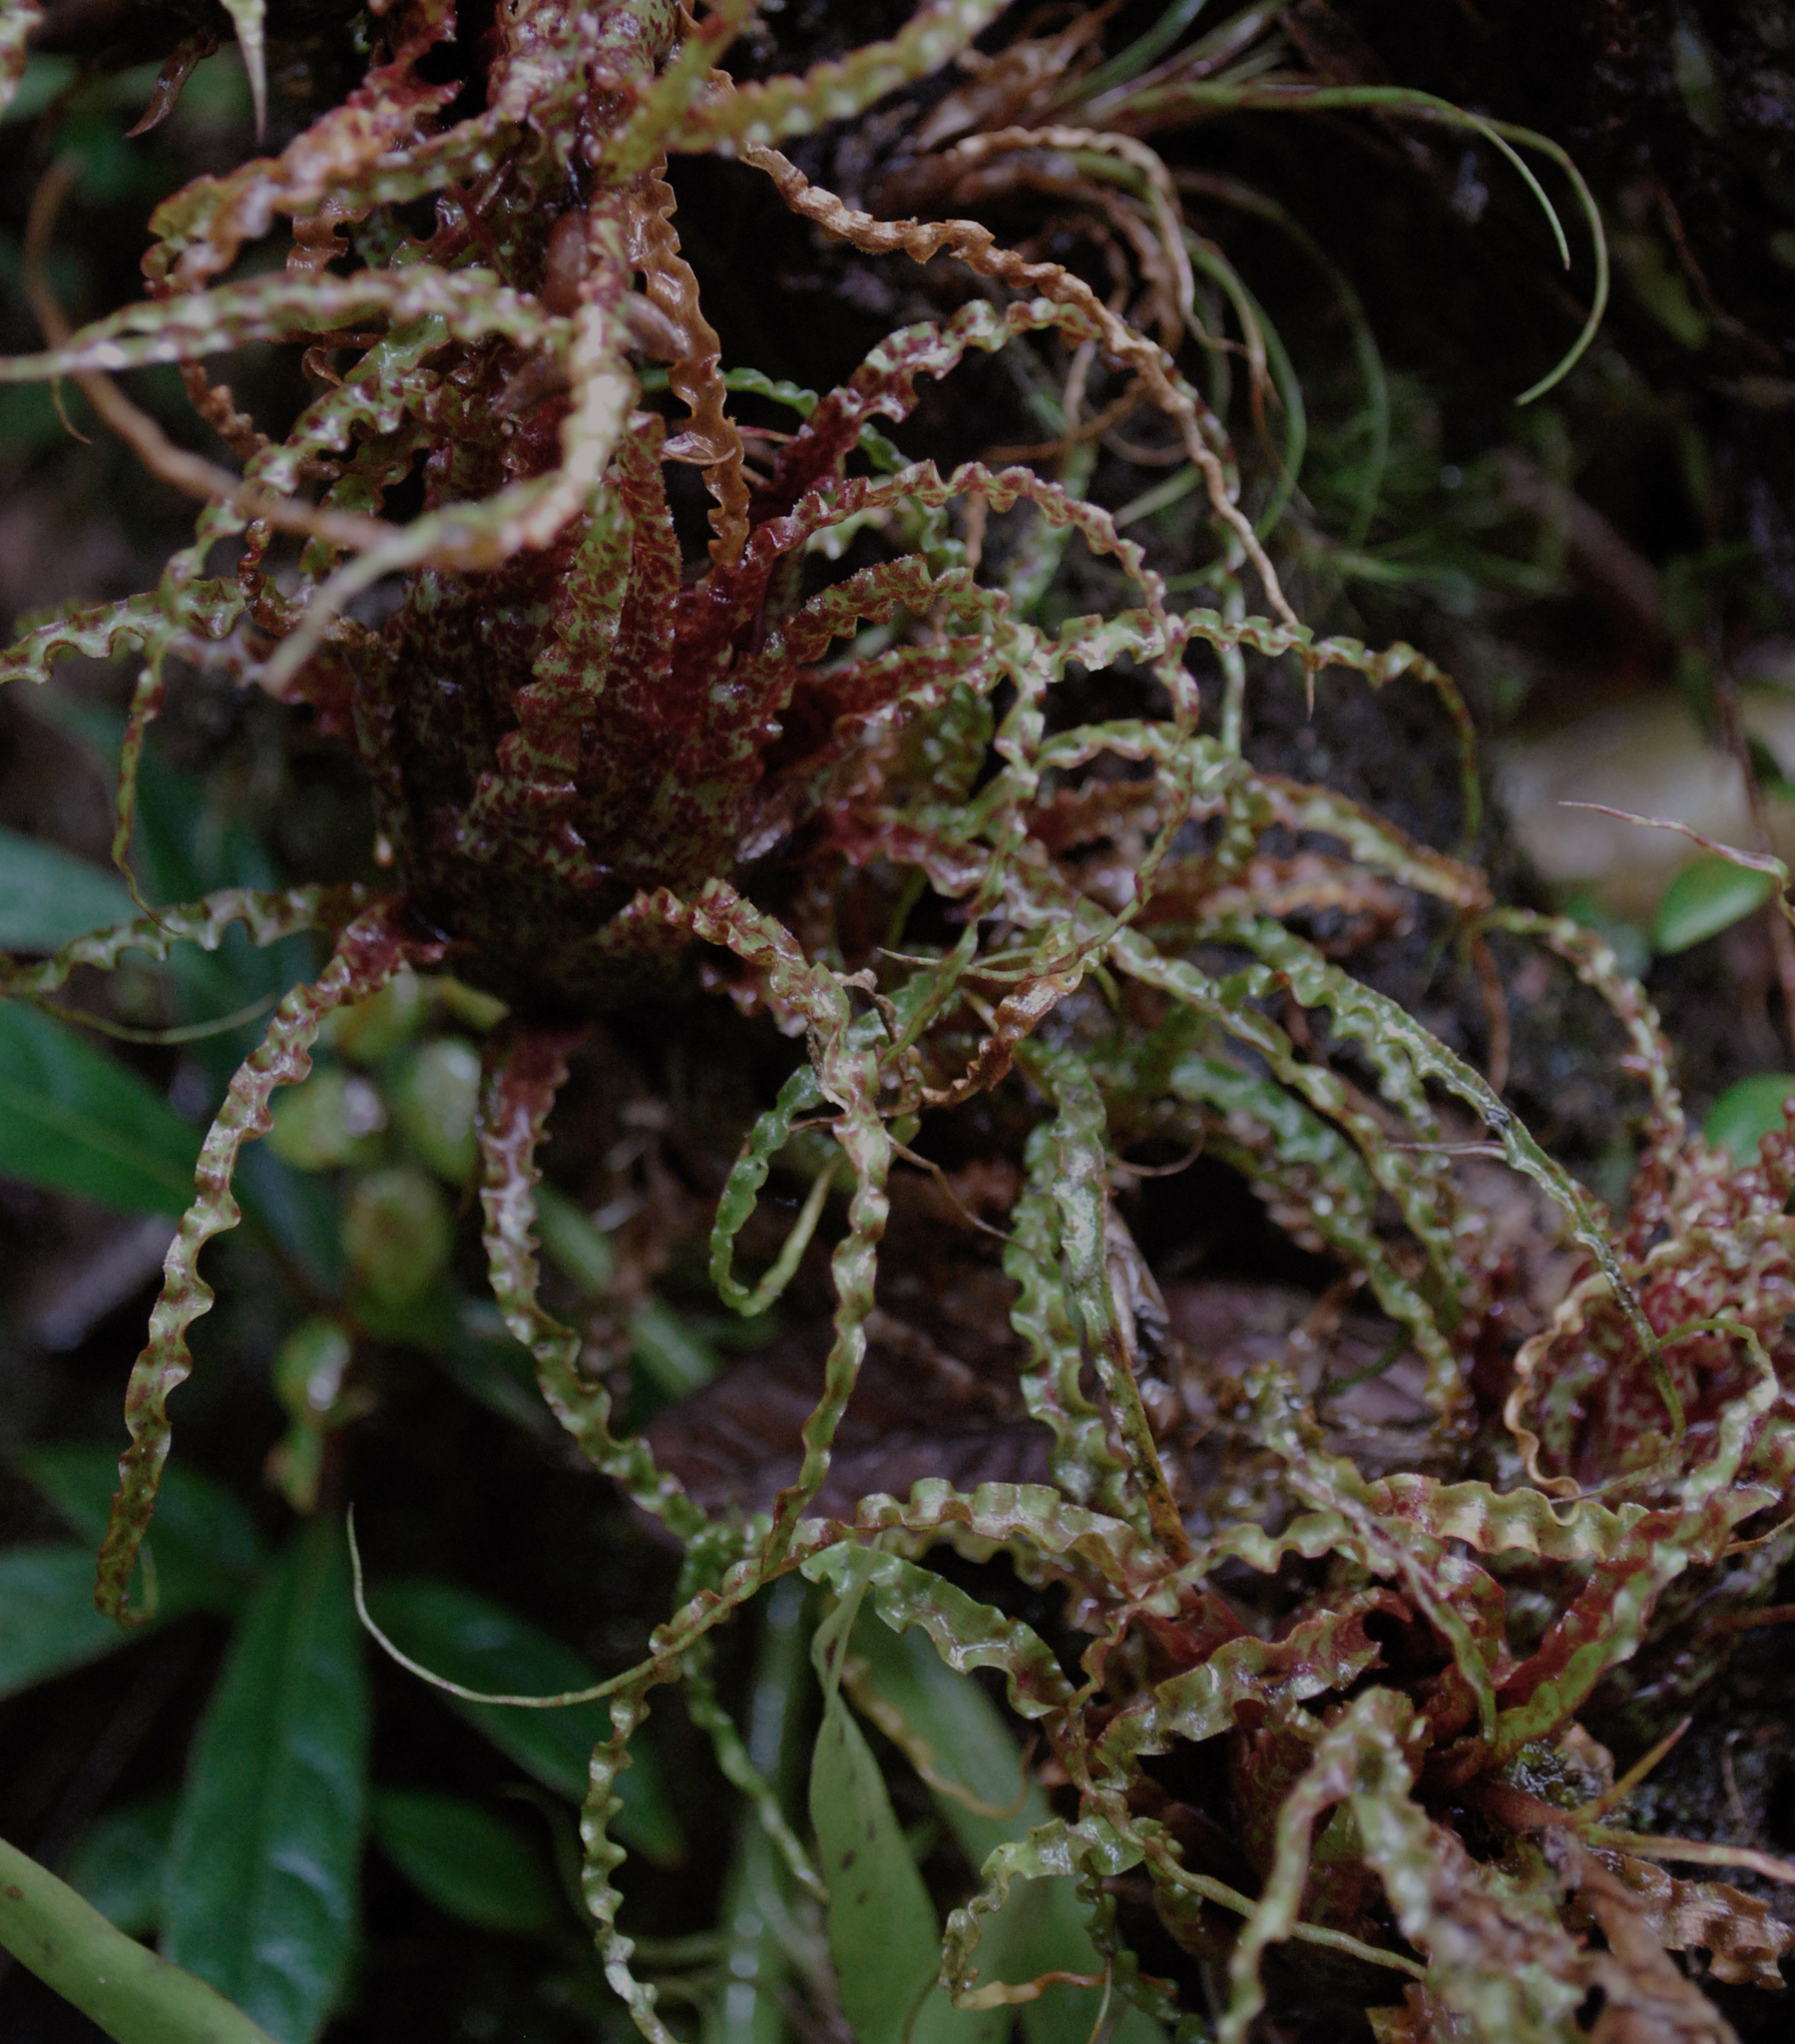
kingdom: Plantae
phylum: Tracheophyta
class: Liliopsida
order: Poales
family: Bromeliaceae
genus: Racinaea
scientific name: Racinaea crispa
